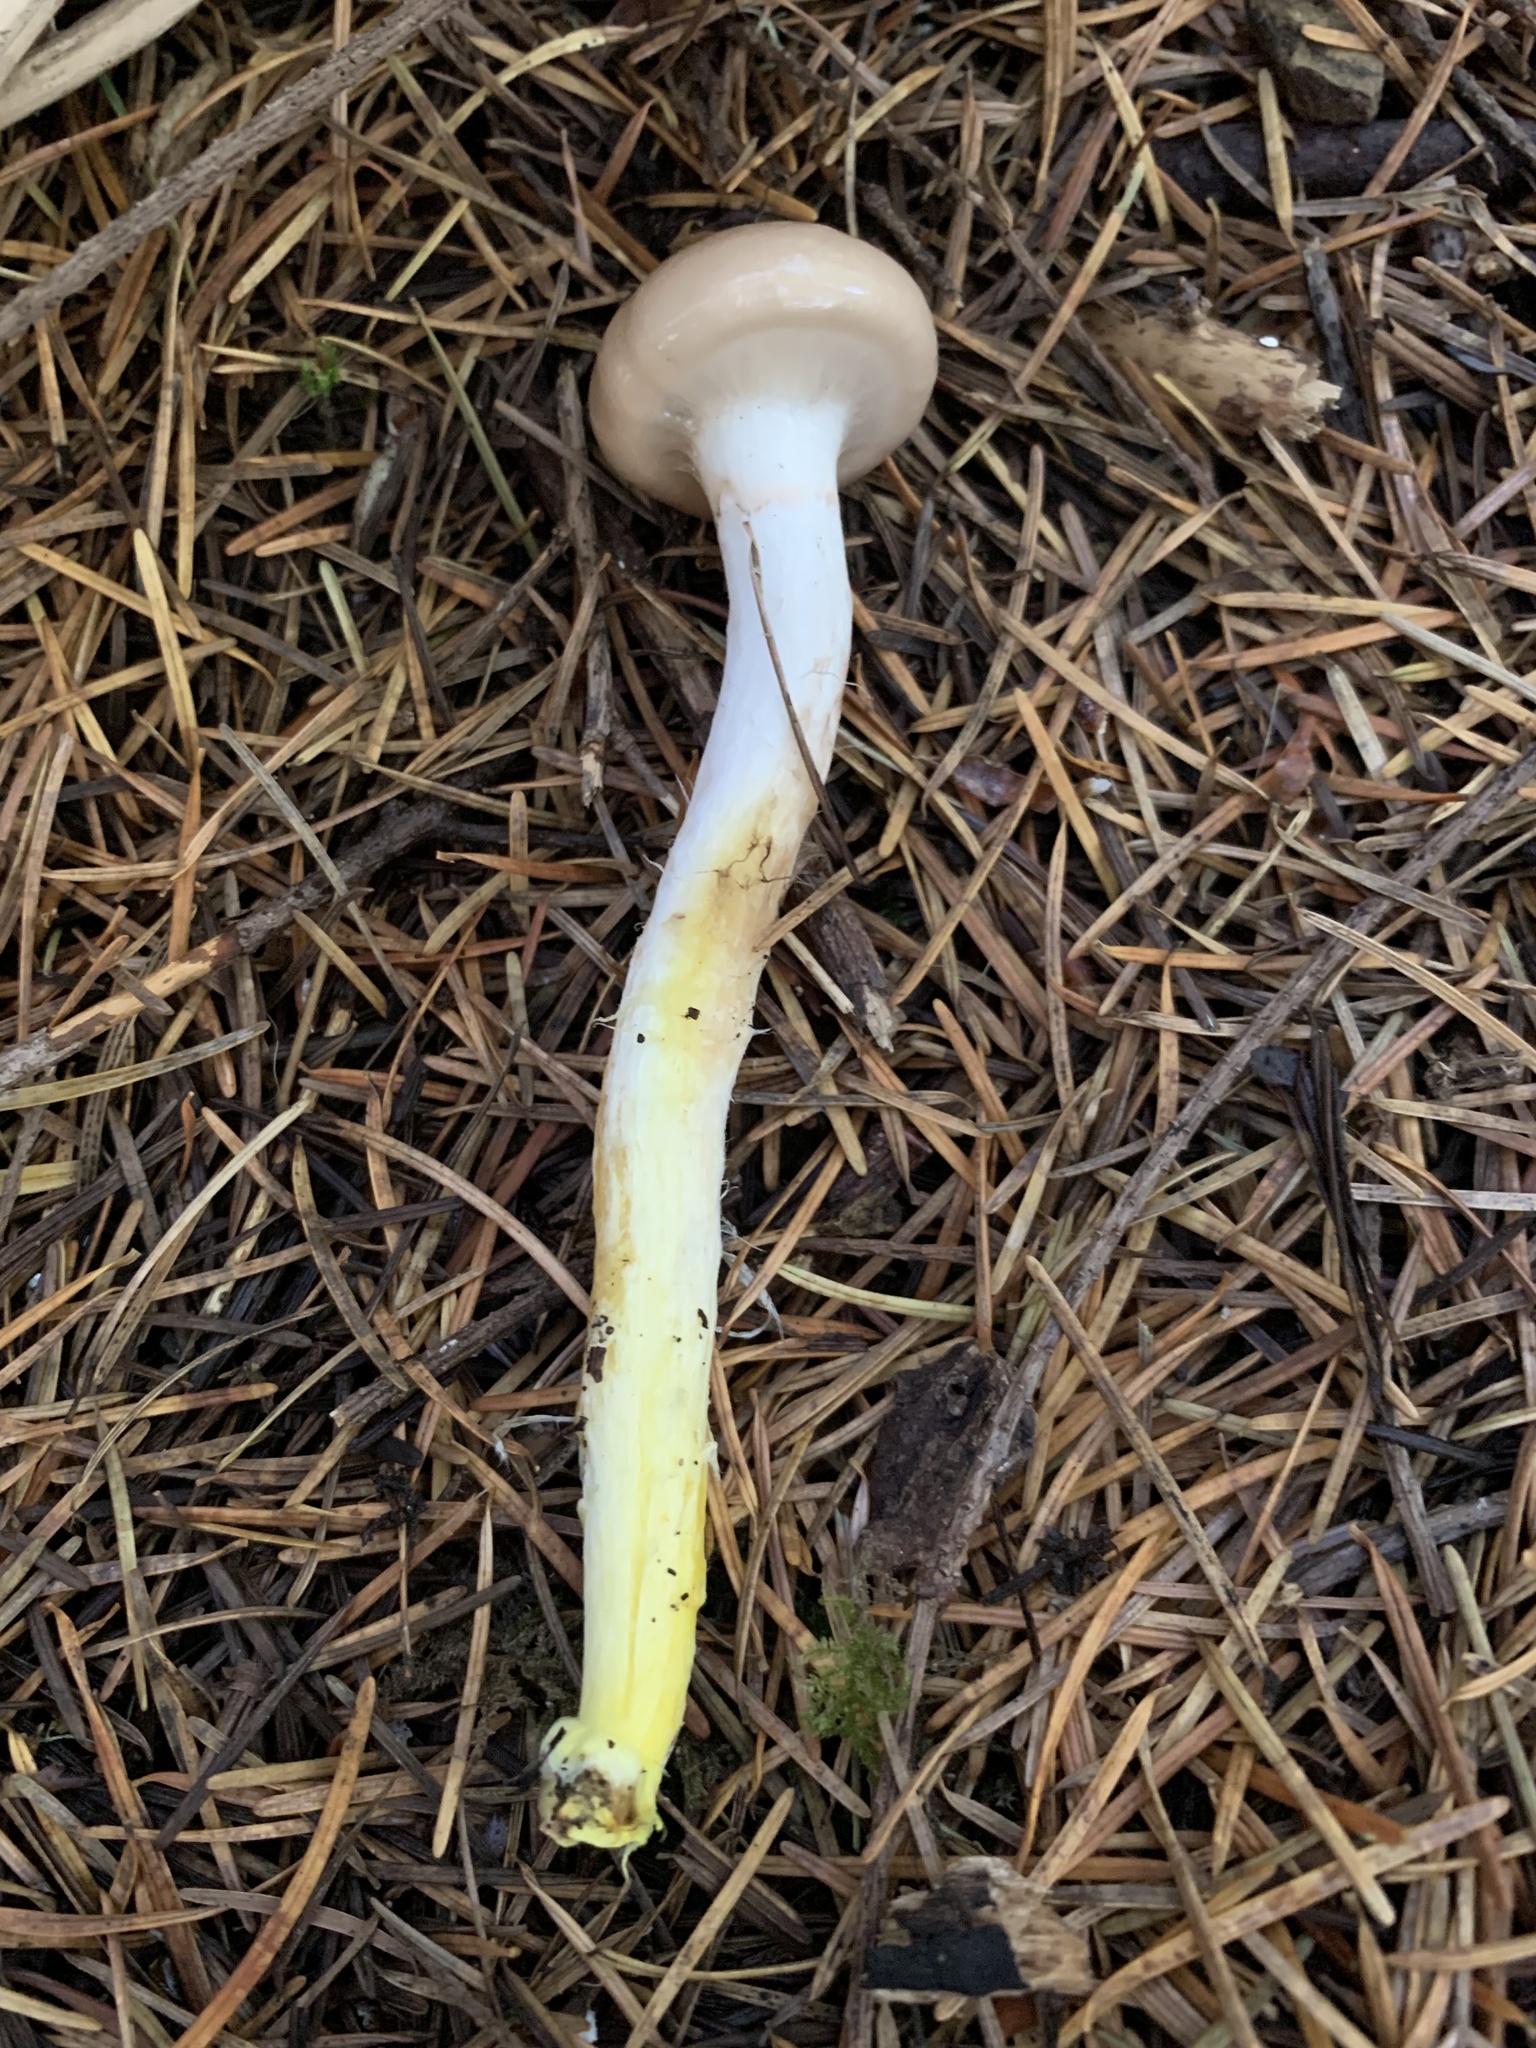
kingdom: Fungi
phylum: Basidiomycota
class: Agaricomycetes
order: Boletales
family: Gomphidiaceae
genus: Gomphidius
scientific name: Gomphidius subroseus
